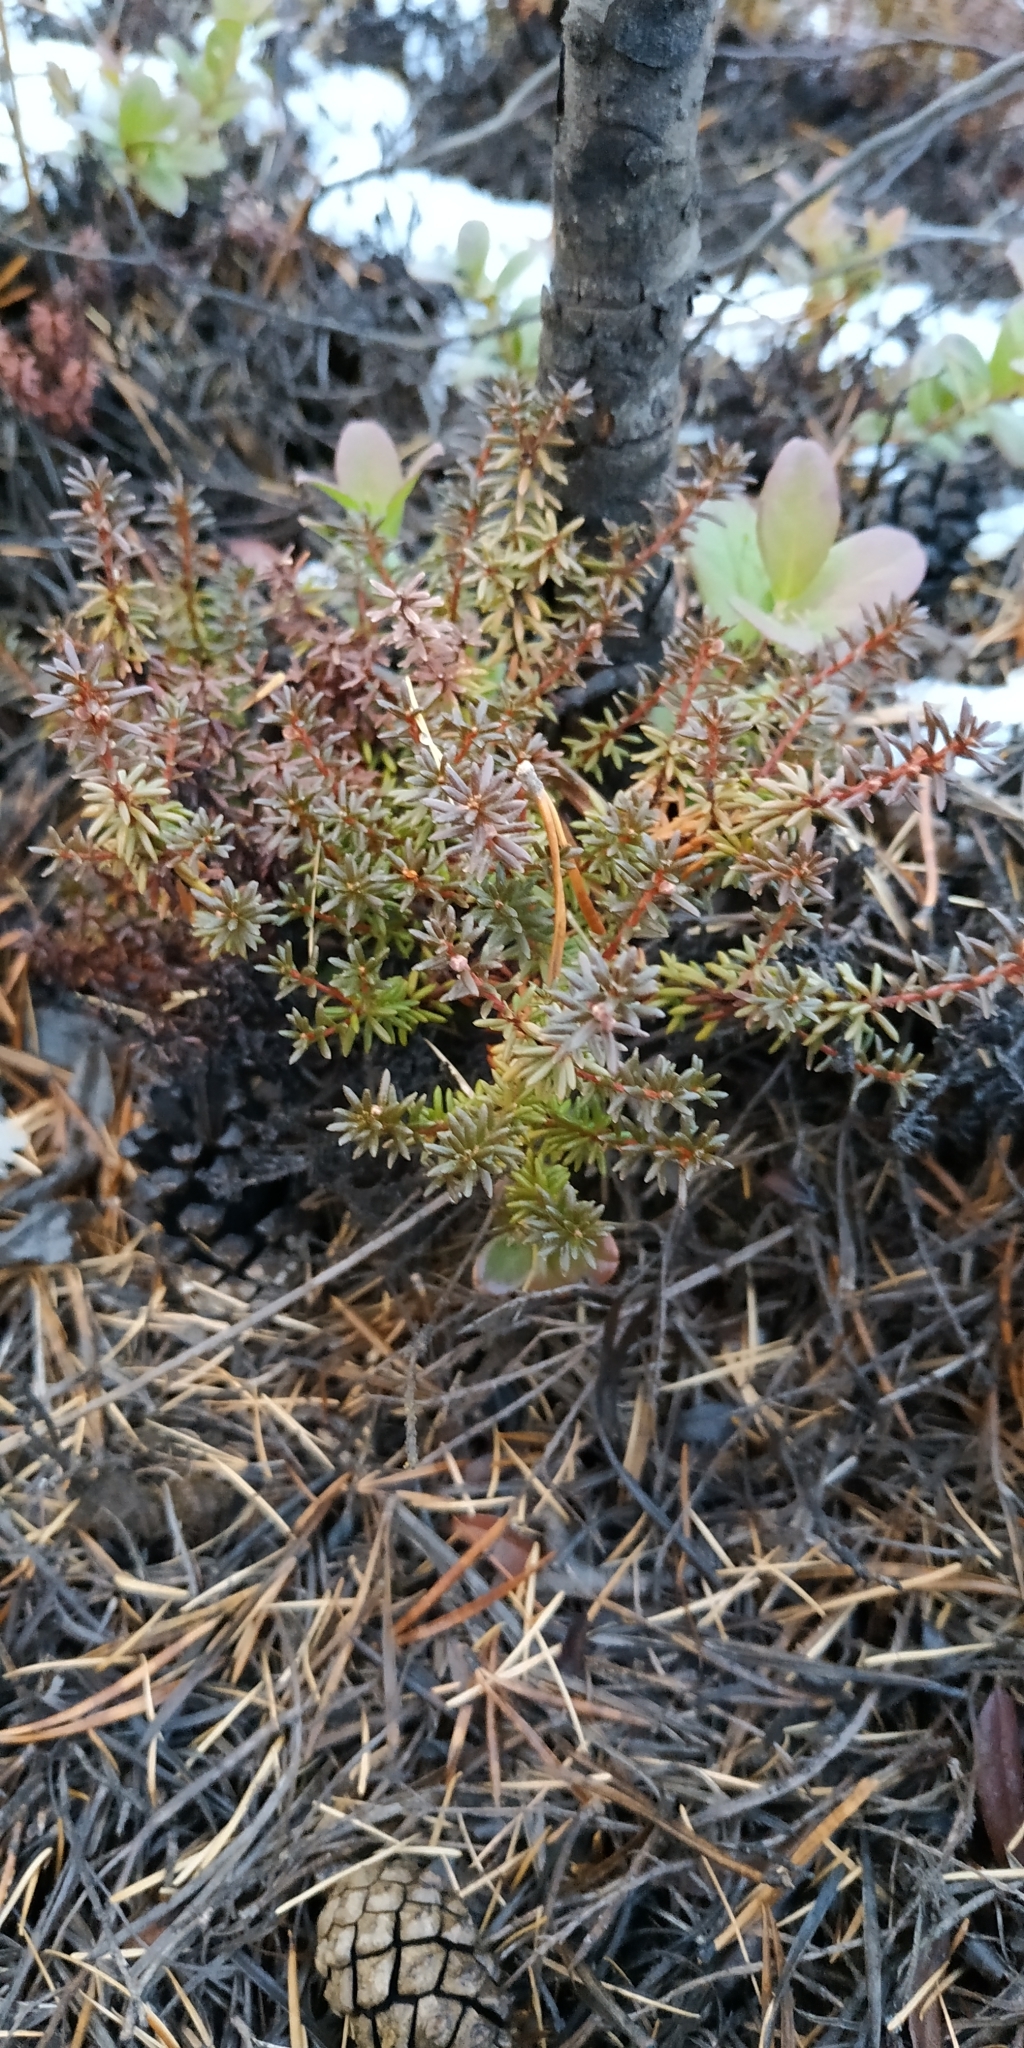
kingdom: Plantae
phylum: Tracheophyta
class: Magnoliopsida
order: Ericales
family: Ericaceae
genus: Empetrum
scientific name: Empetrum nigrum
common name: Black crowberry
